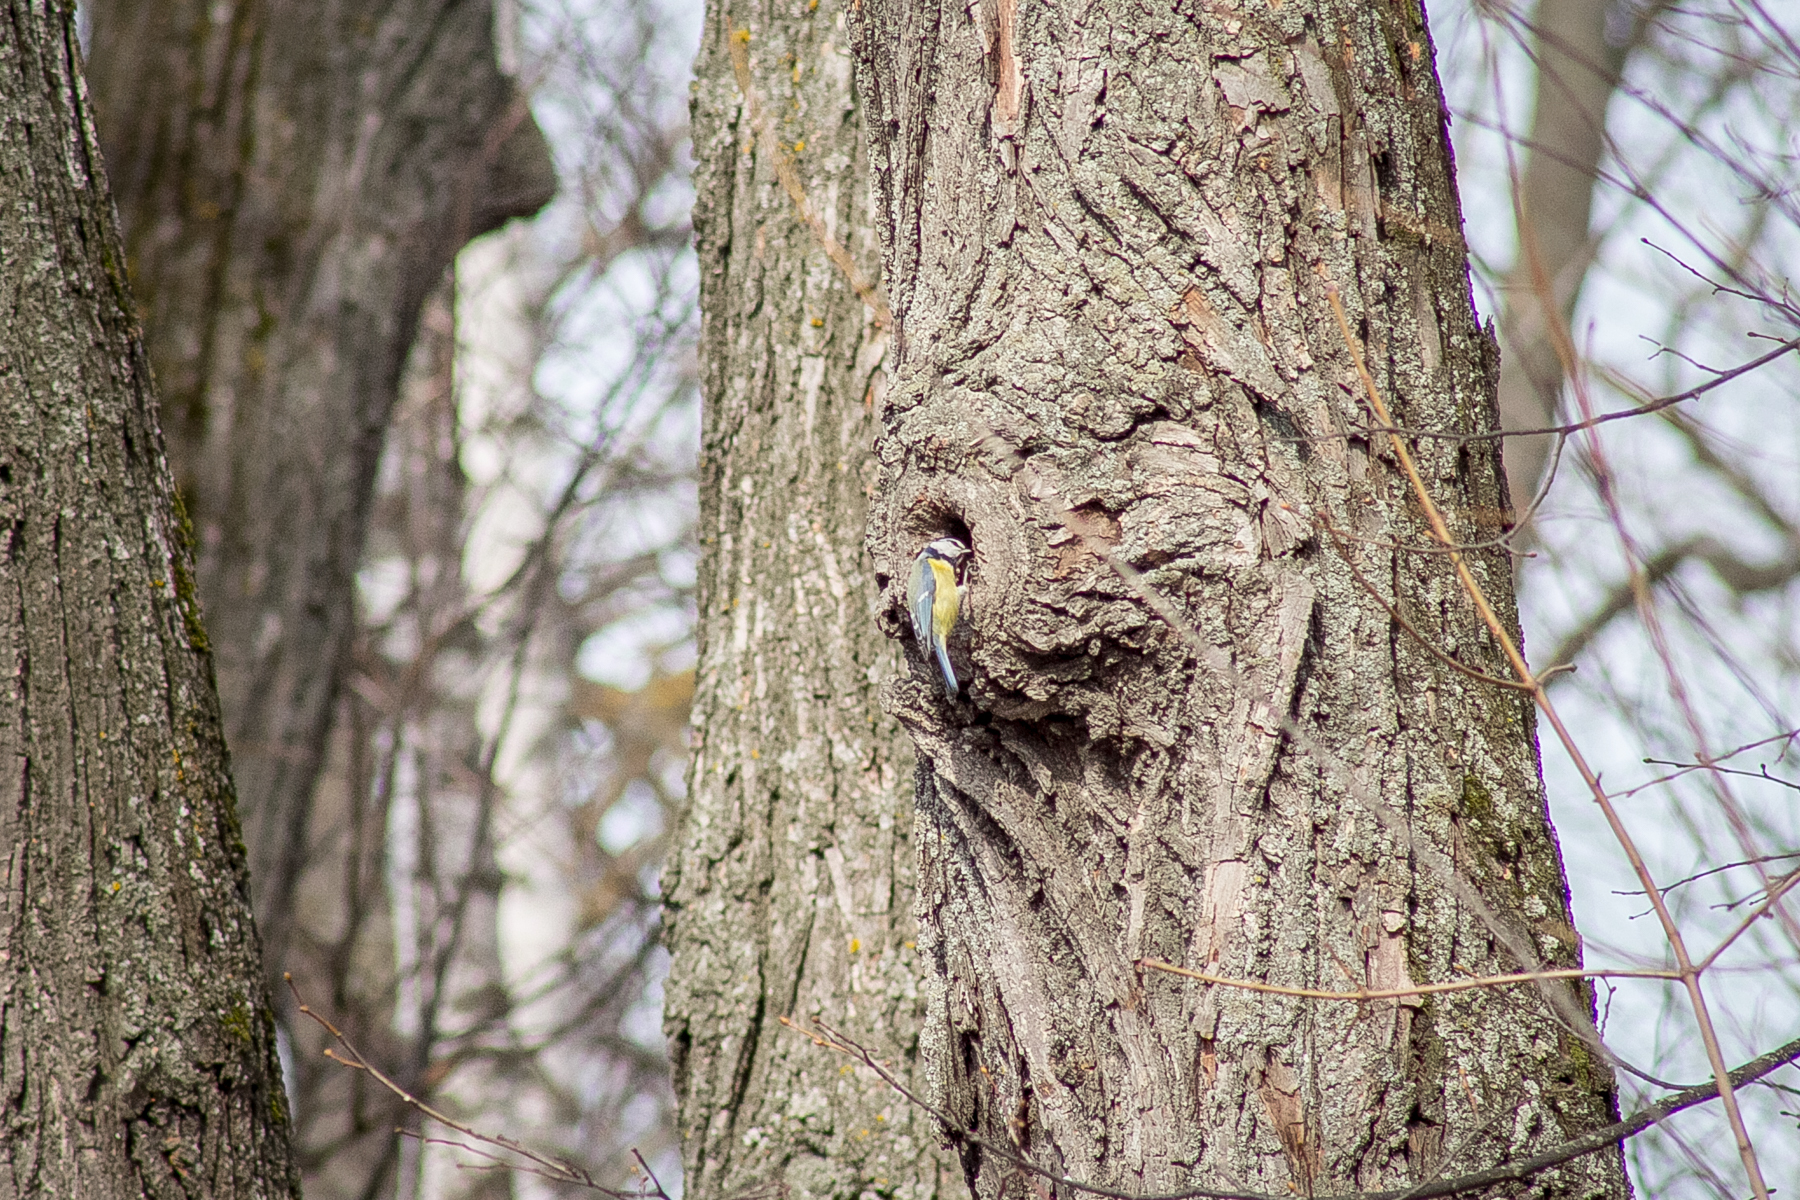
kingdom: Animalia
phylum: Chordata
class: Aves
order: Passeriformes
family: Paridae
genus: Cyanistes
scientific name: Cyanistes caeruleus
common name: Eurasian blue tit
